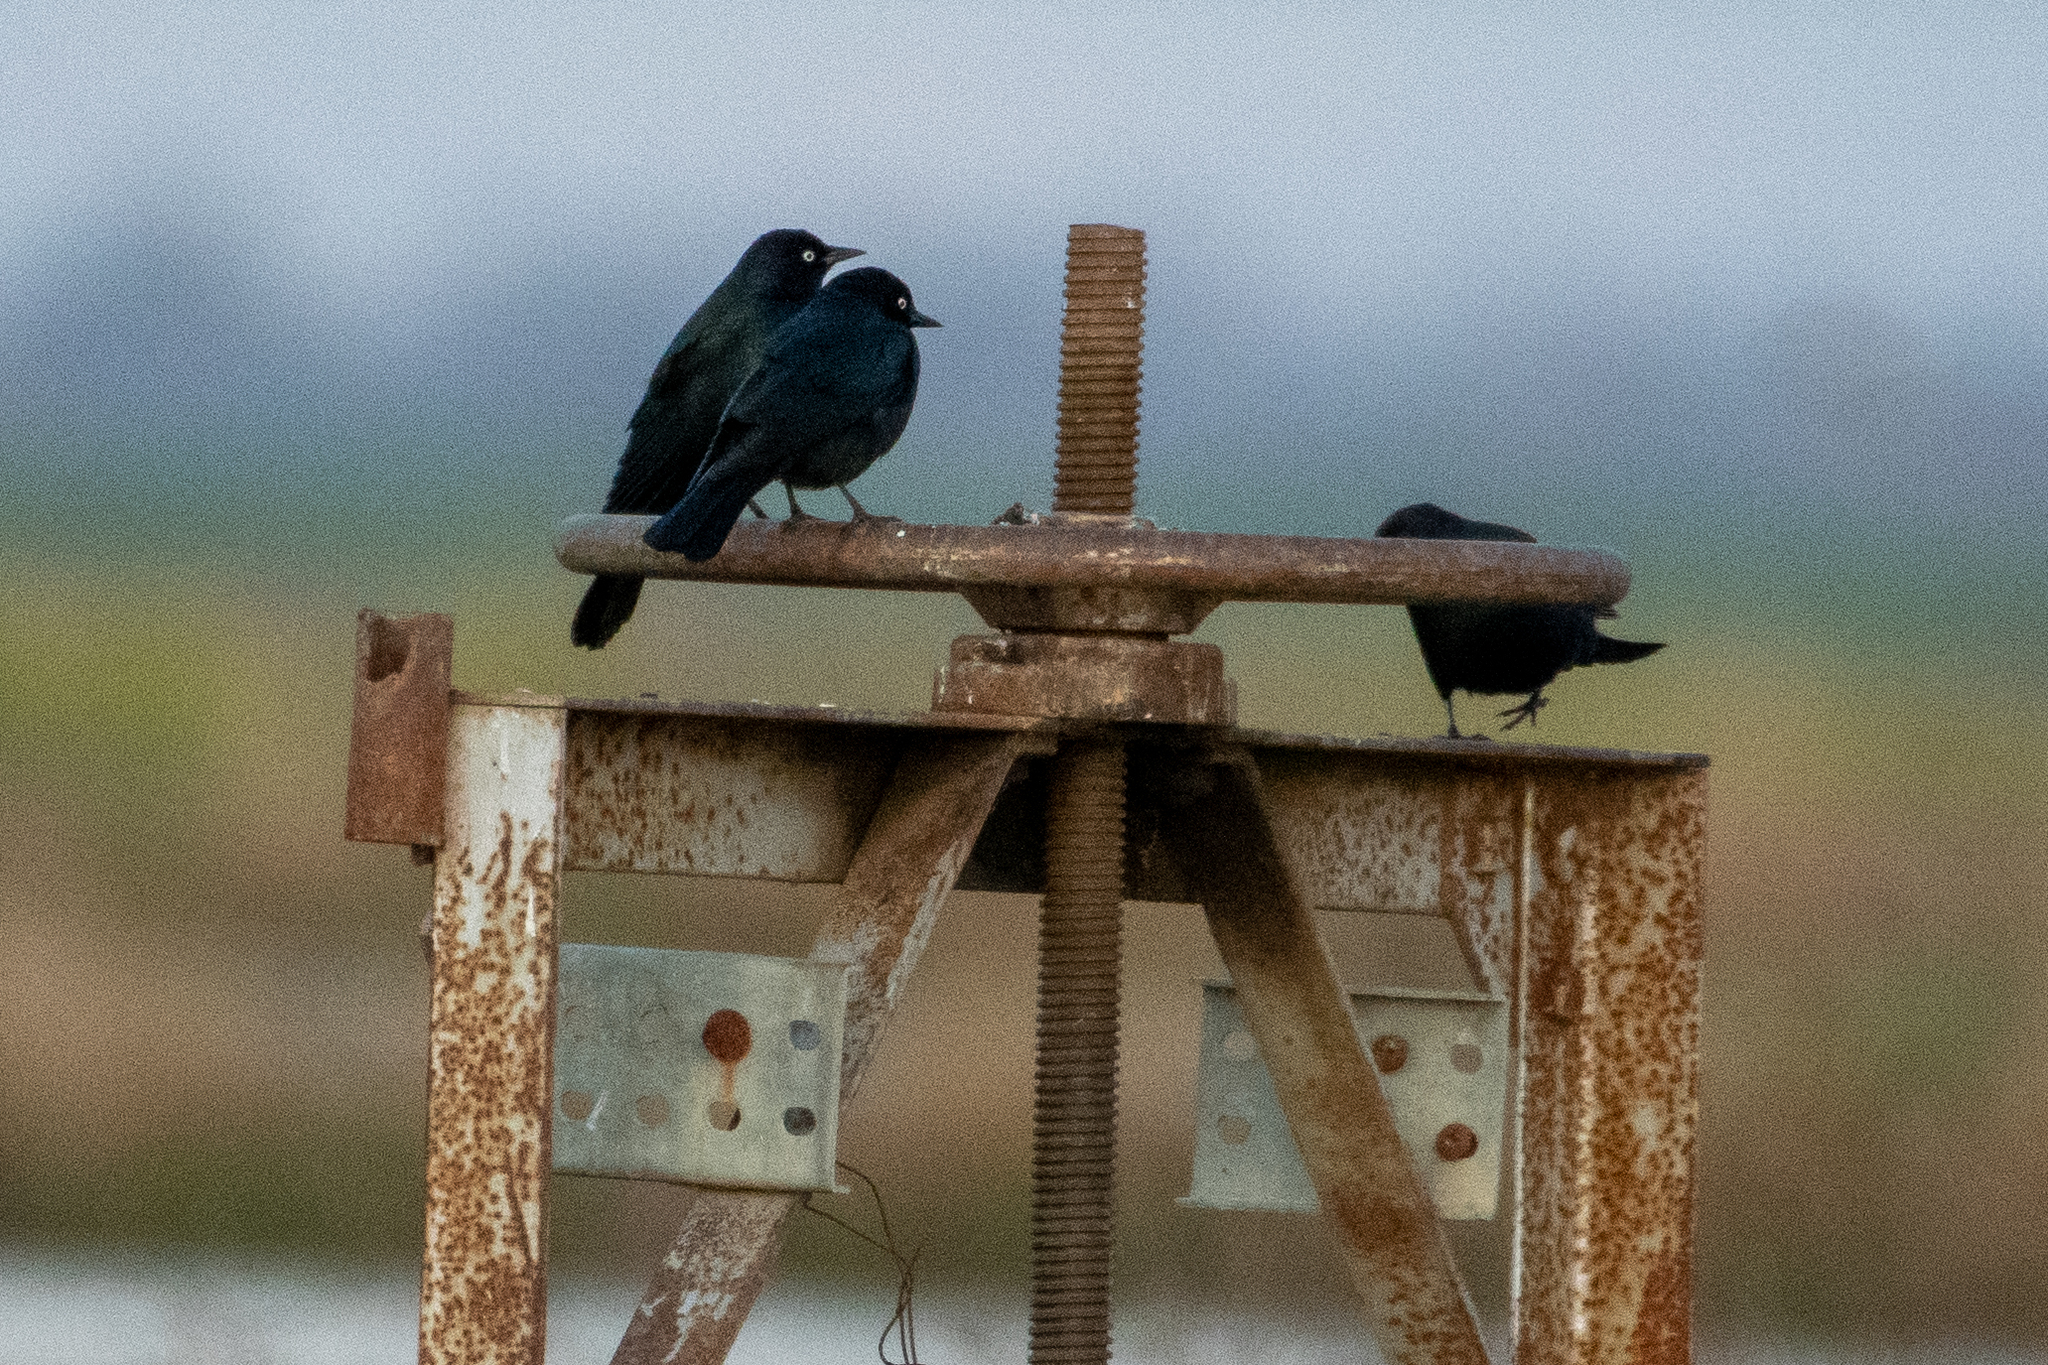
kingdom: Animalia
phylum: Chordata
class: Aves
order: Passeriformes
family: Icteridae
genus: Euphagus
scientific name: Euphagus cyanocephalus
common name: Brewer's blackbird
